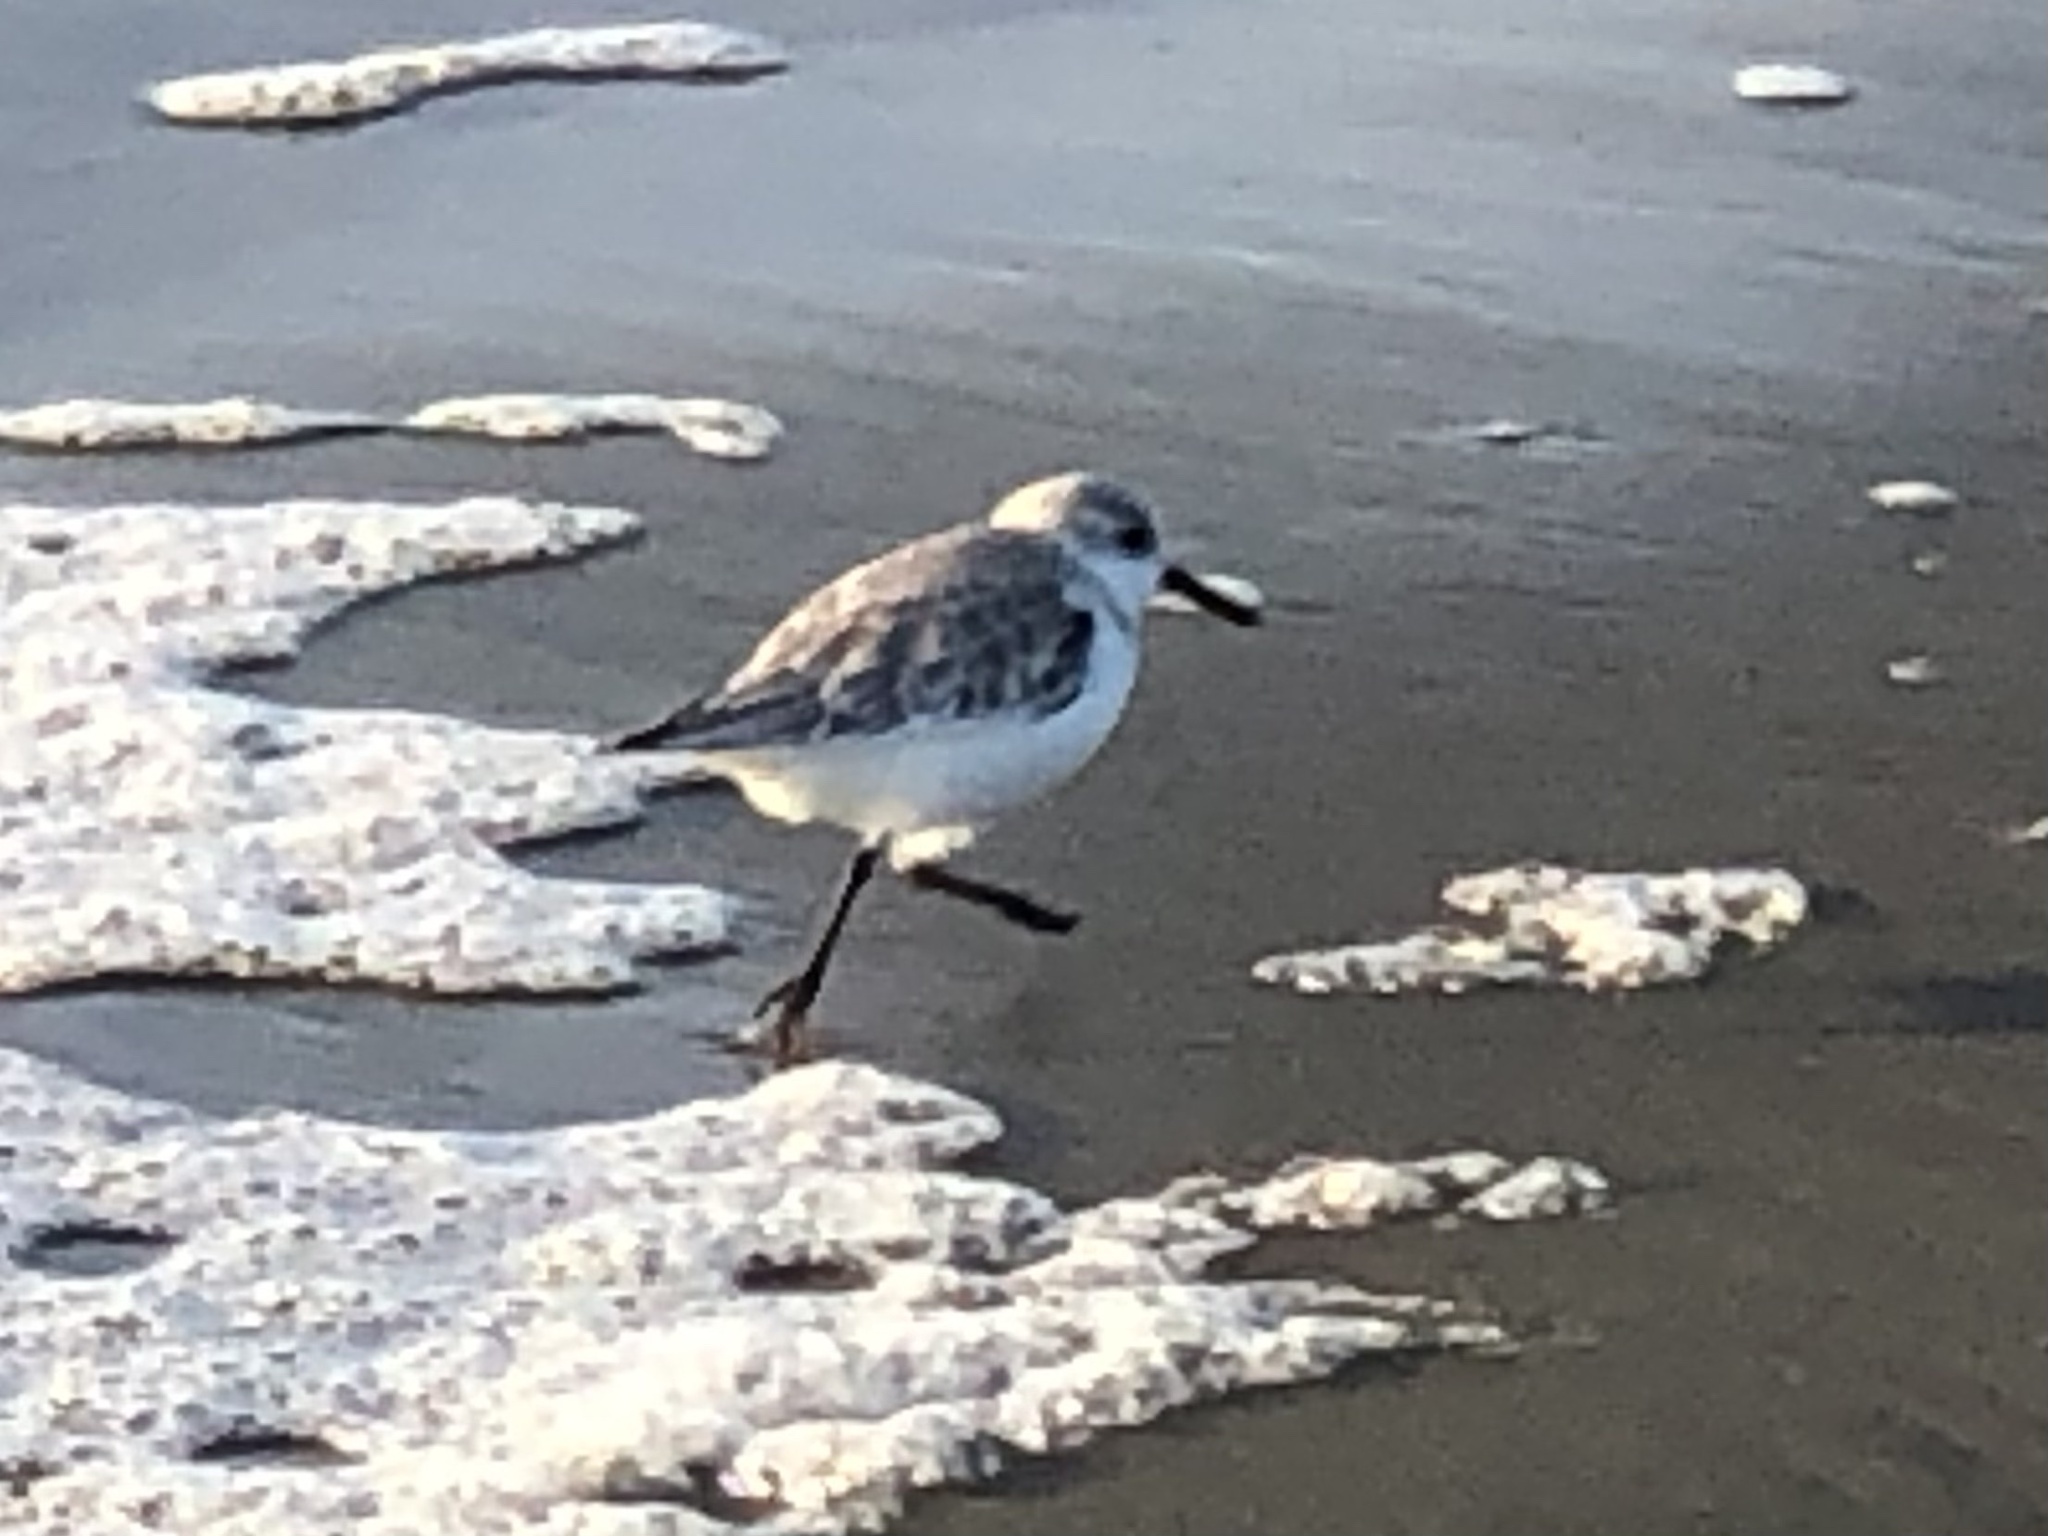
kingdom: Animalia
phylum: Chordata
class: Aves
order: Charadriiformes
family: Scolopacidae
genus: Calidris
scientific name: Calidris alba
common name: Sanderling
